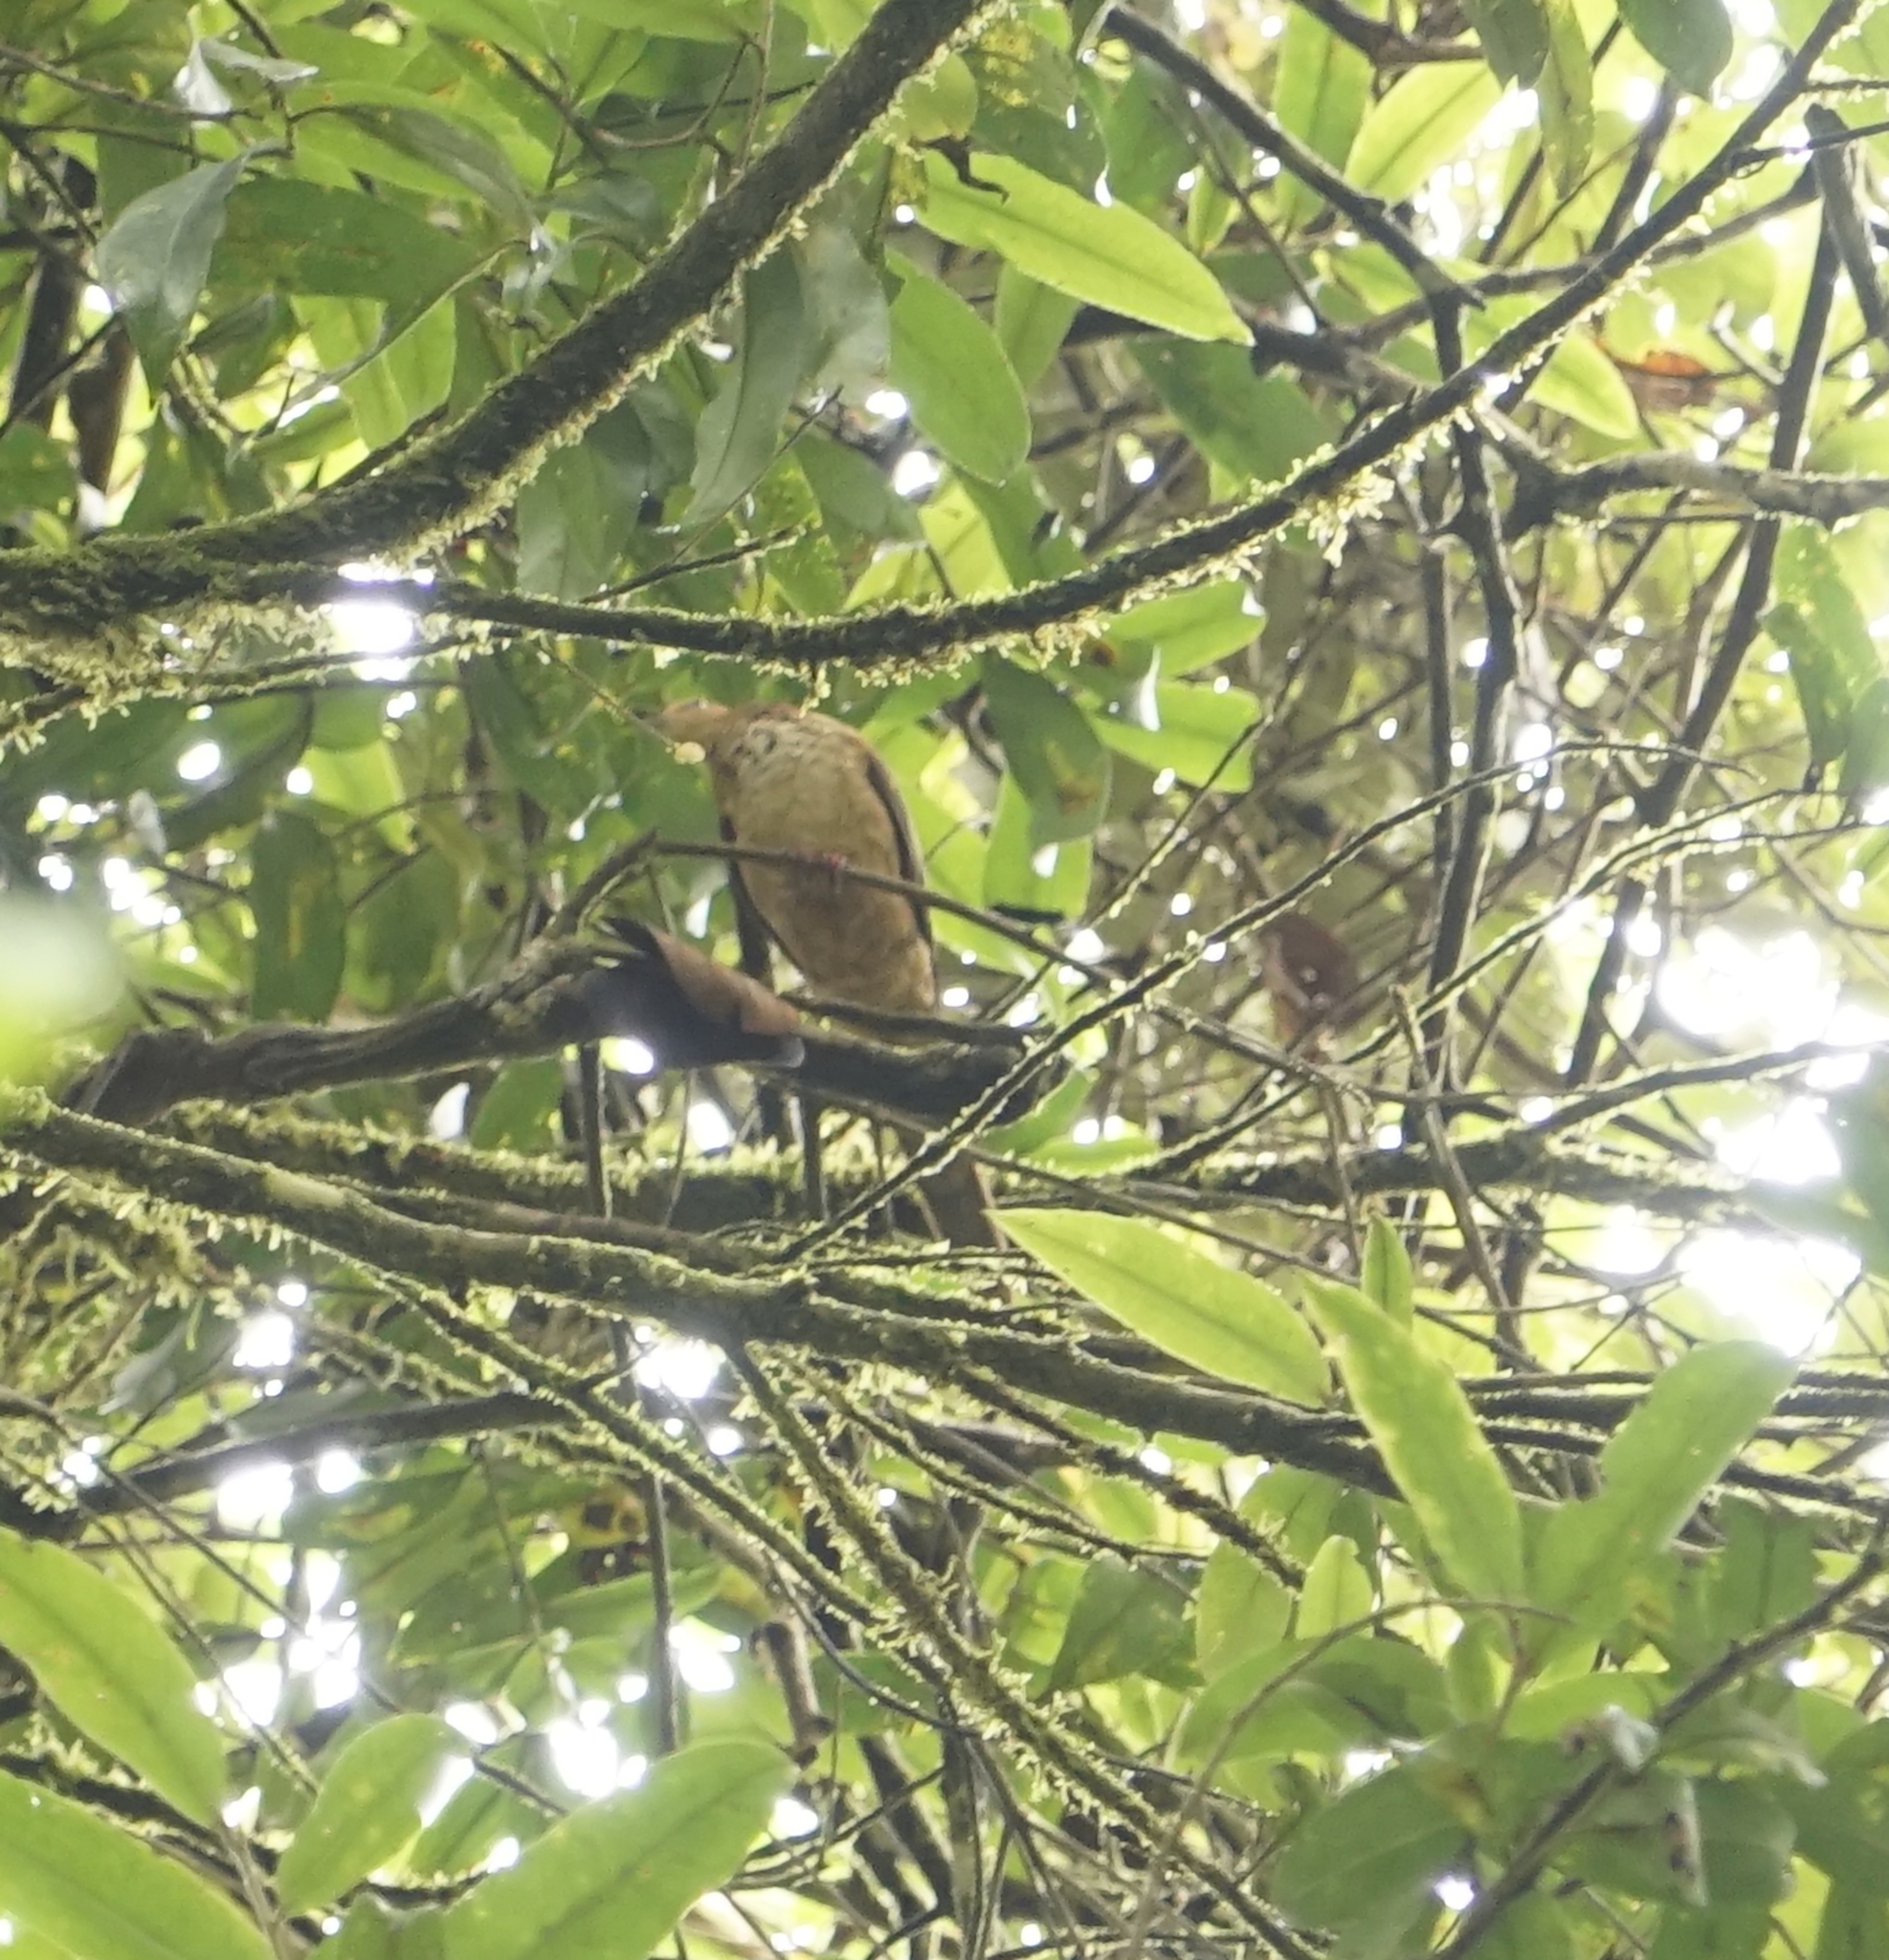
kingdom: Animalia
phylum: Chordata
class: Aves
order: Columbiformes
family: Columbidae
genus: Macropygia
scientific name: Macropygia ruficeps
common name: Little cuckoo-dove
